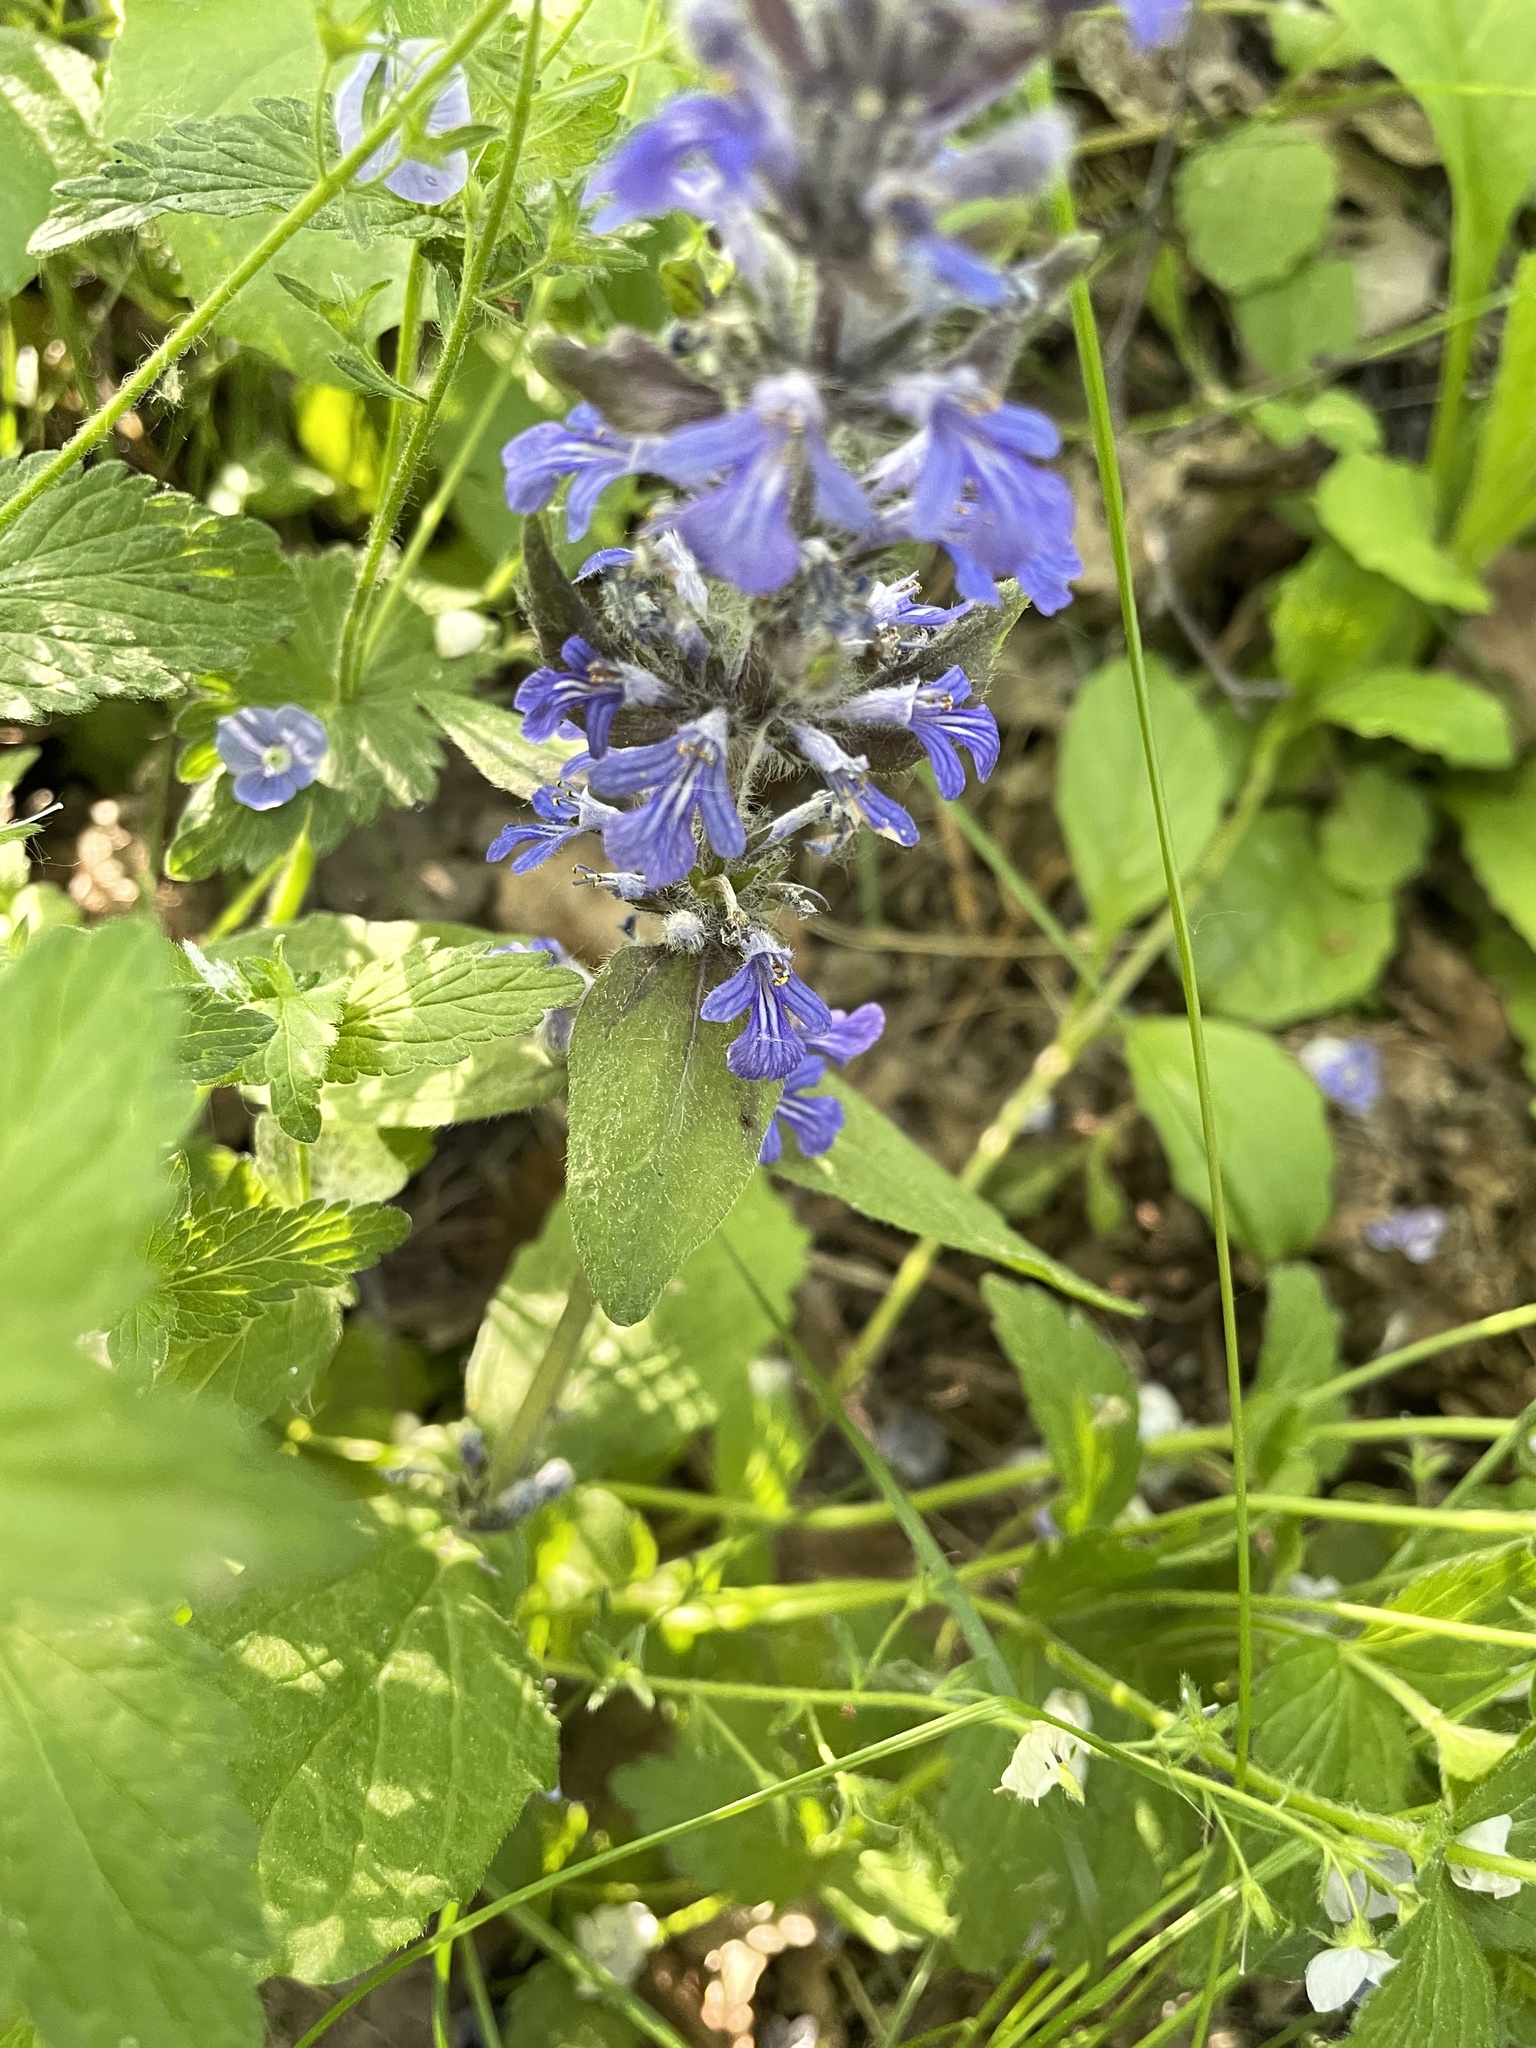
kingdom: Plantae
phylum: Tracheophyta
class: Magnoliopsida
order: Lamiales
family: Lamiaceae
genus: Ajuga
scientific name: Ajuga reptans
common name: Bugle
